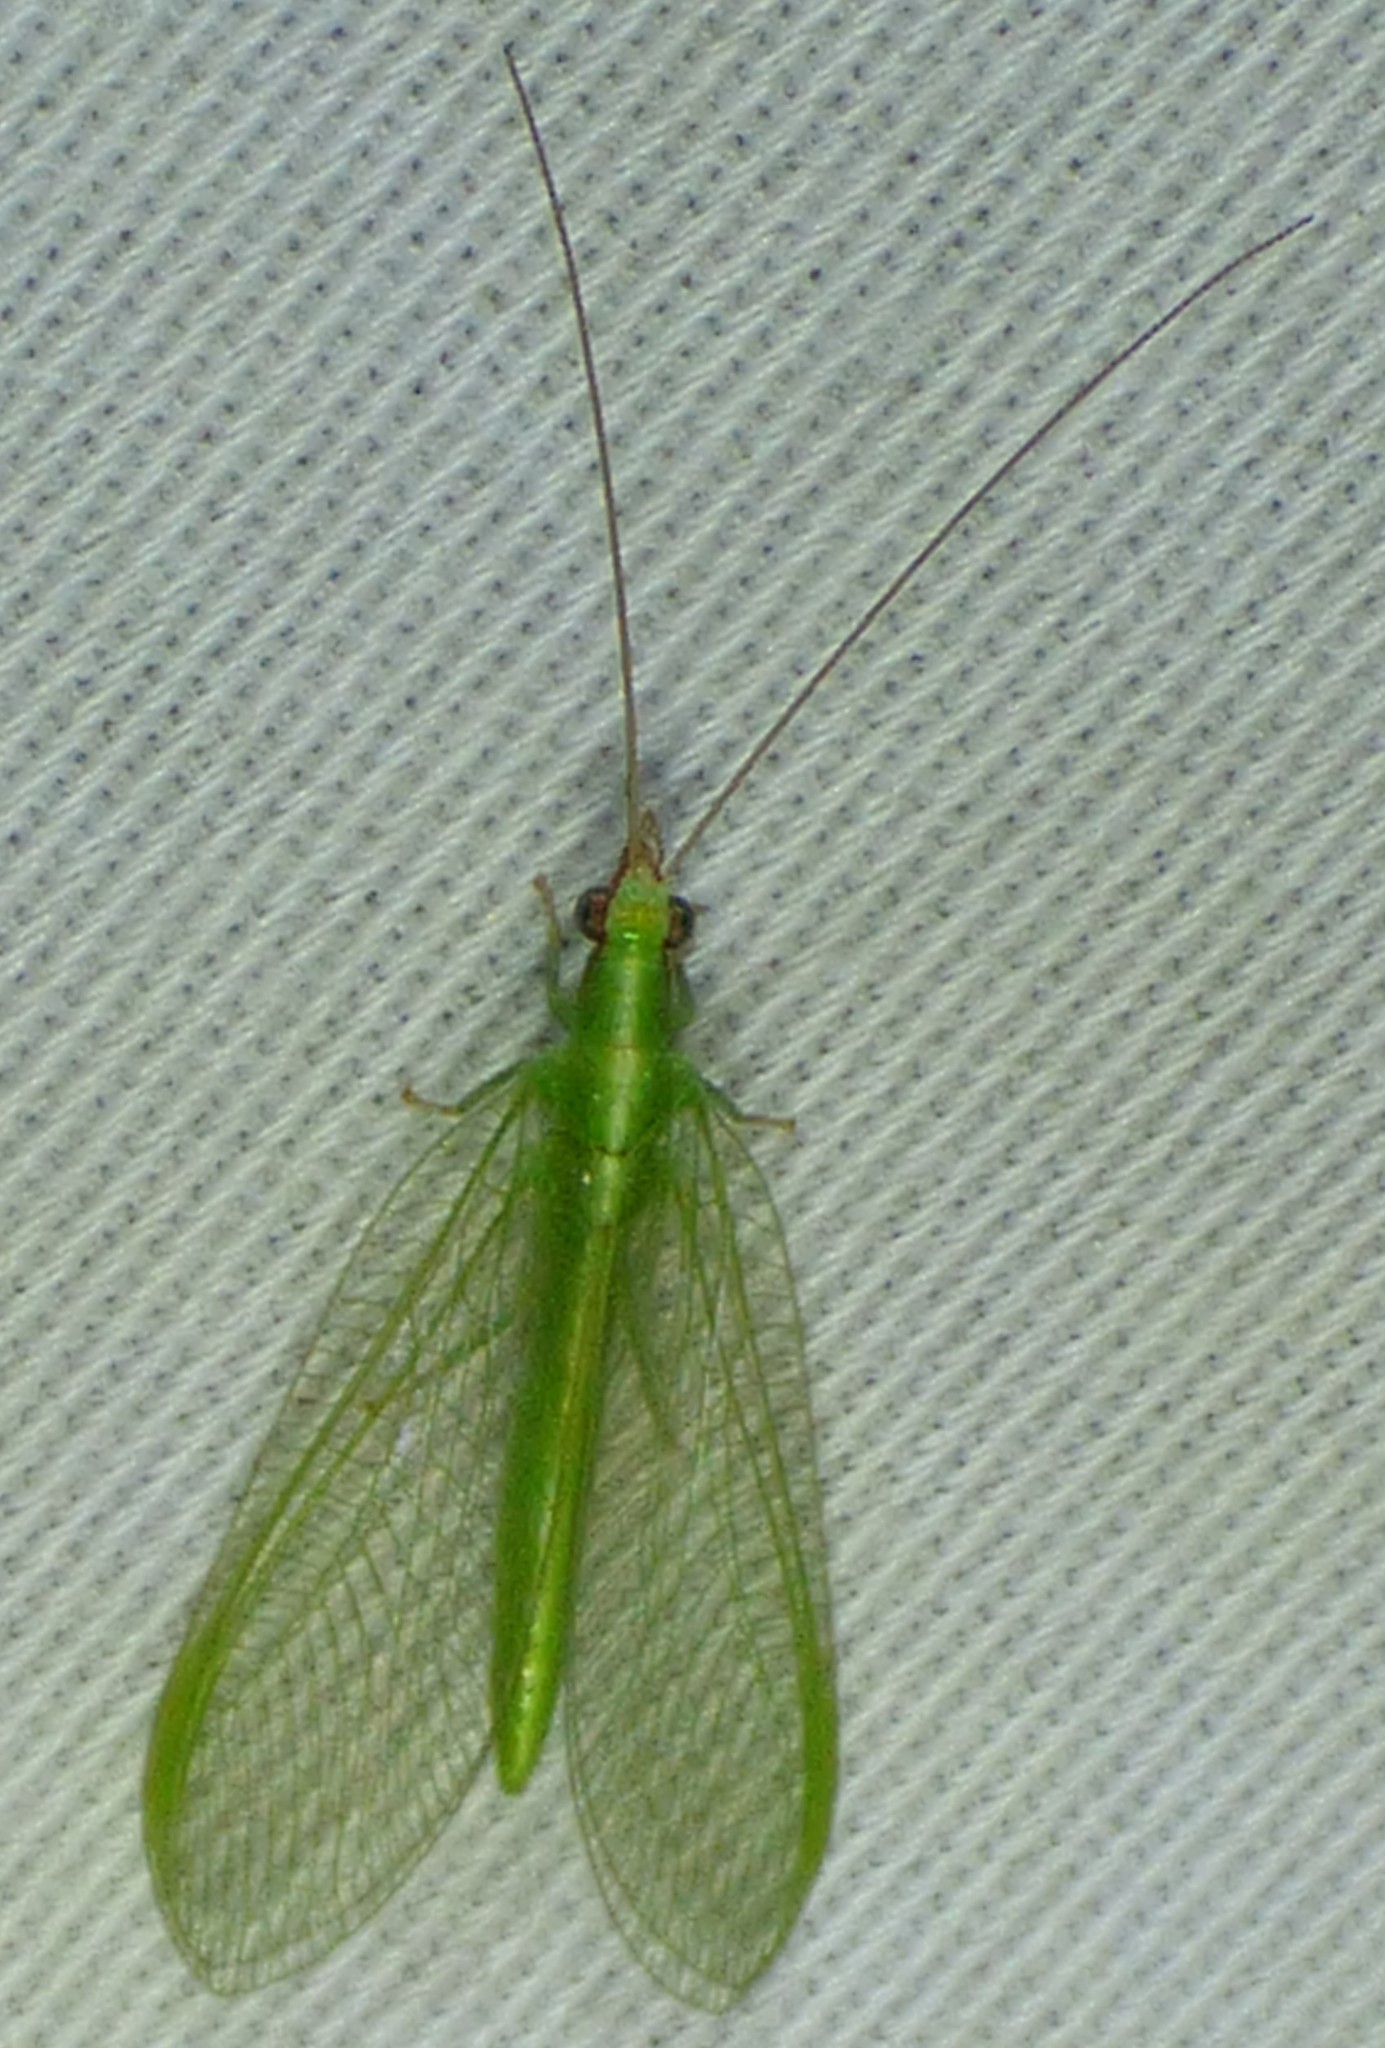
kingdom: Animalia
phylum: Arthropoda
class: Insecta
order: Neuroptera
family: Chrysopidae
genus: Chrysoperla
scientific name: Chrysoperla
